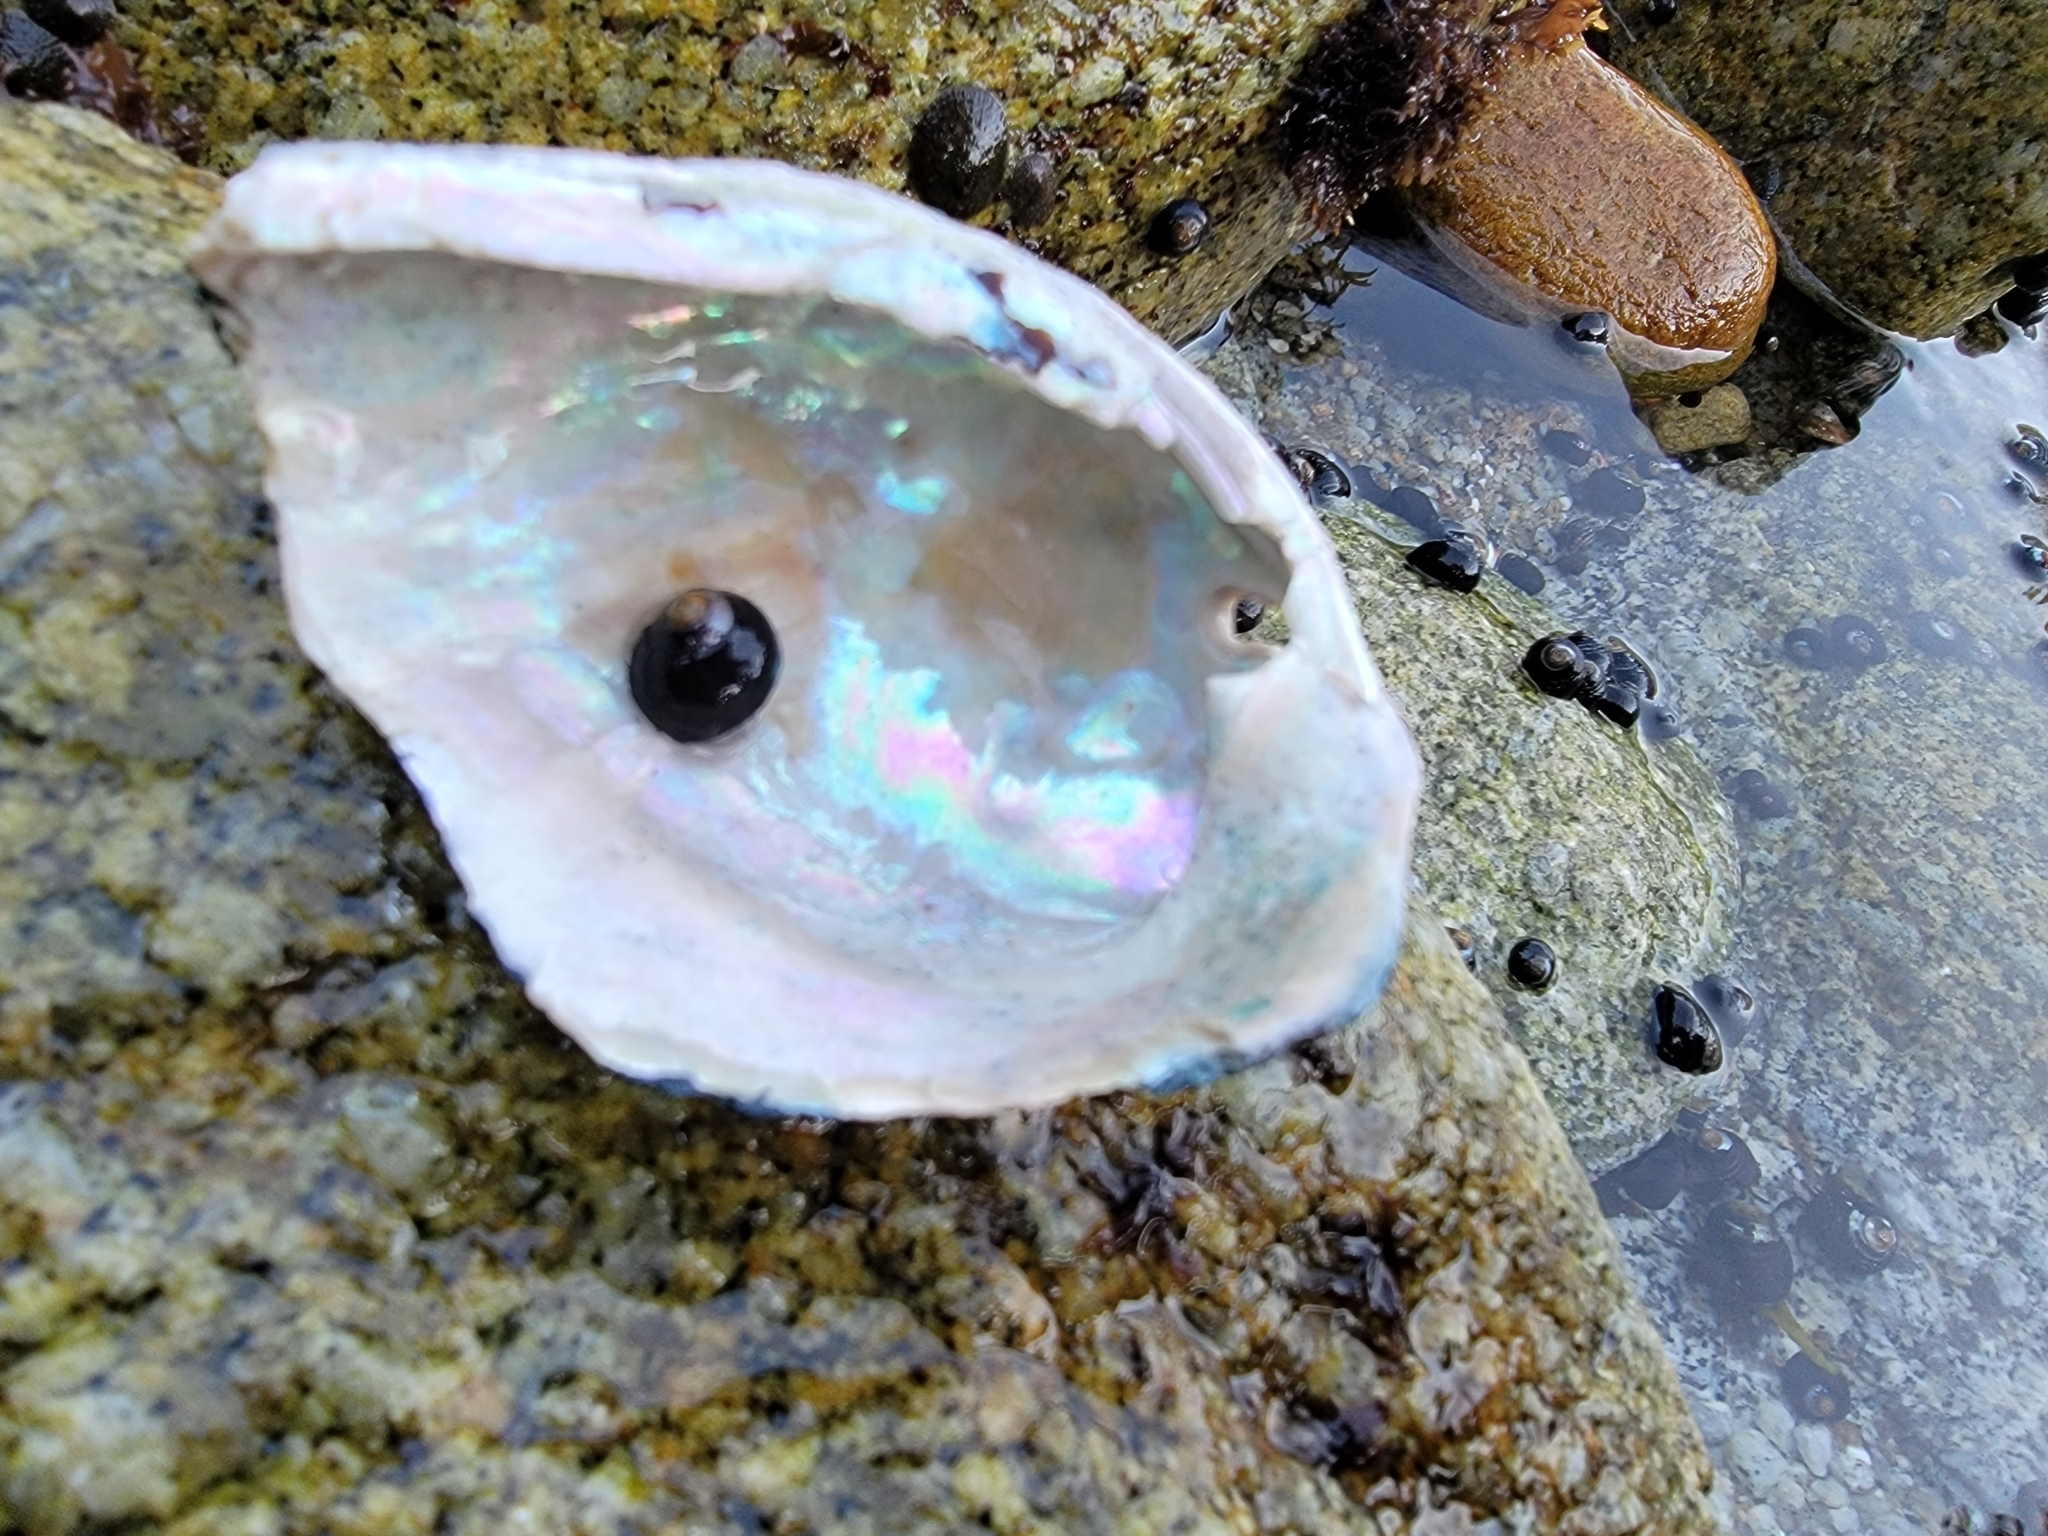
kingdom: Animalia
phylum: Mollusca
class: Gastropoda
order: Lepetellida
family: Haliotidae
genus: Haliotis
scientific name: Haliotis cracherodii
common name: Black abalone
